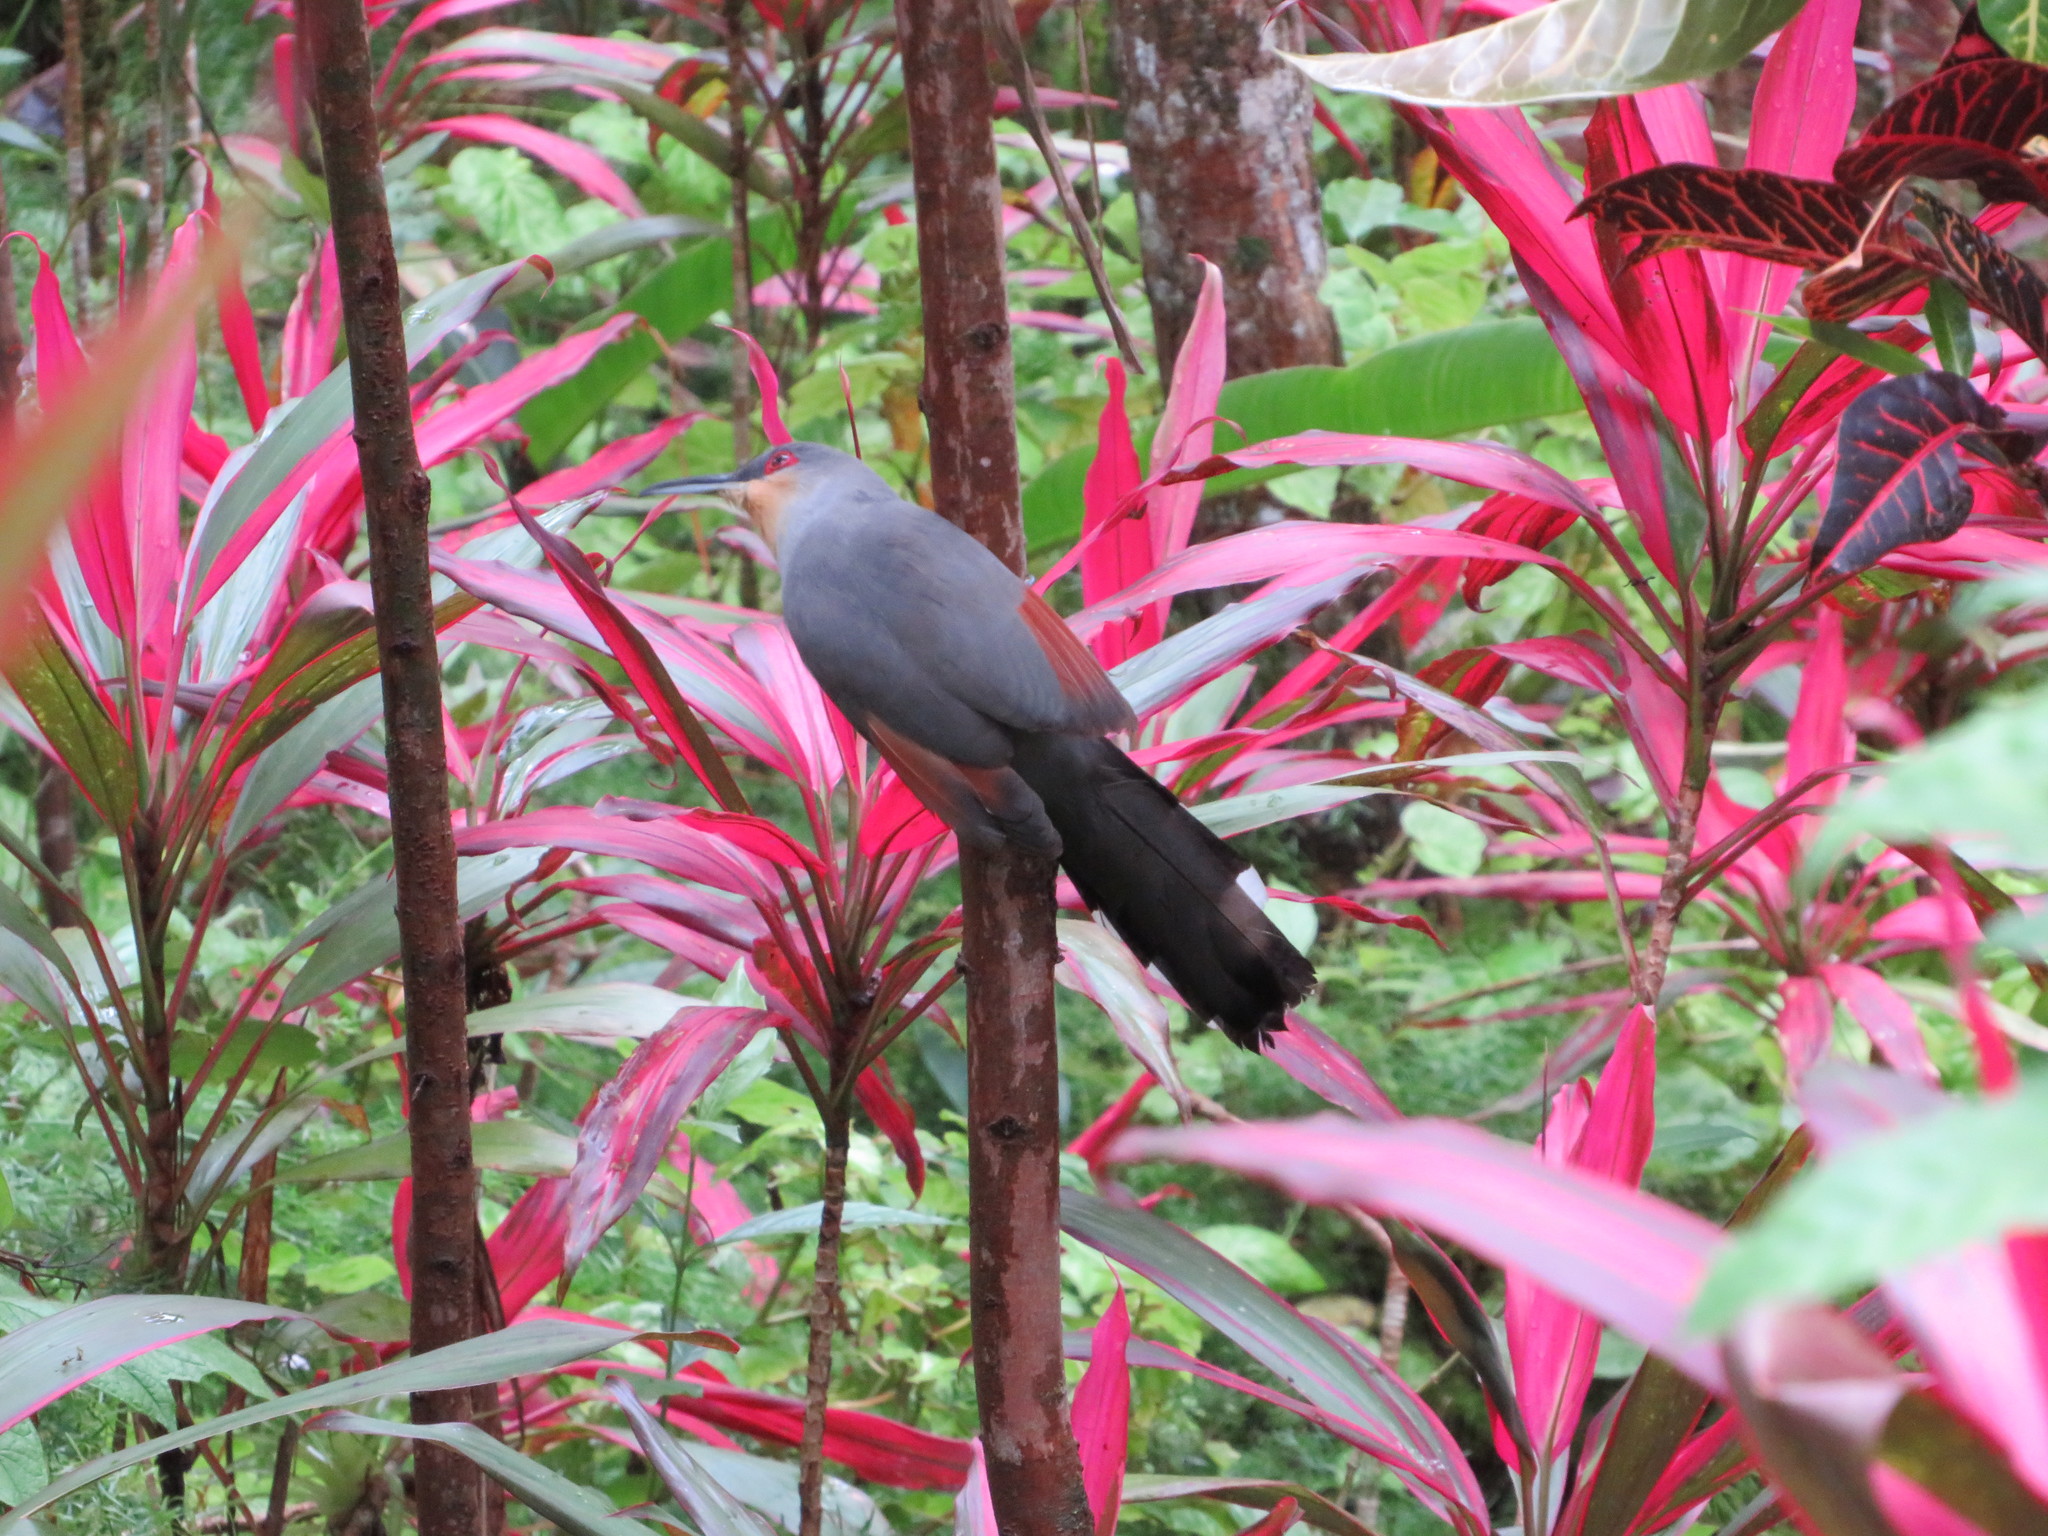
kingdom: Animalia
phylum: Chordata
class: Aves
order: Cuculiformes
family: Cuculidae
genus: Saurothera
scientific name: Saurothera longirostris
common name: Hispaniolan lizard-cuckoo
